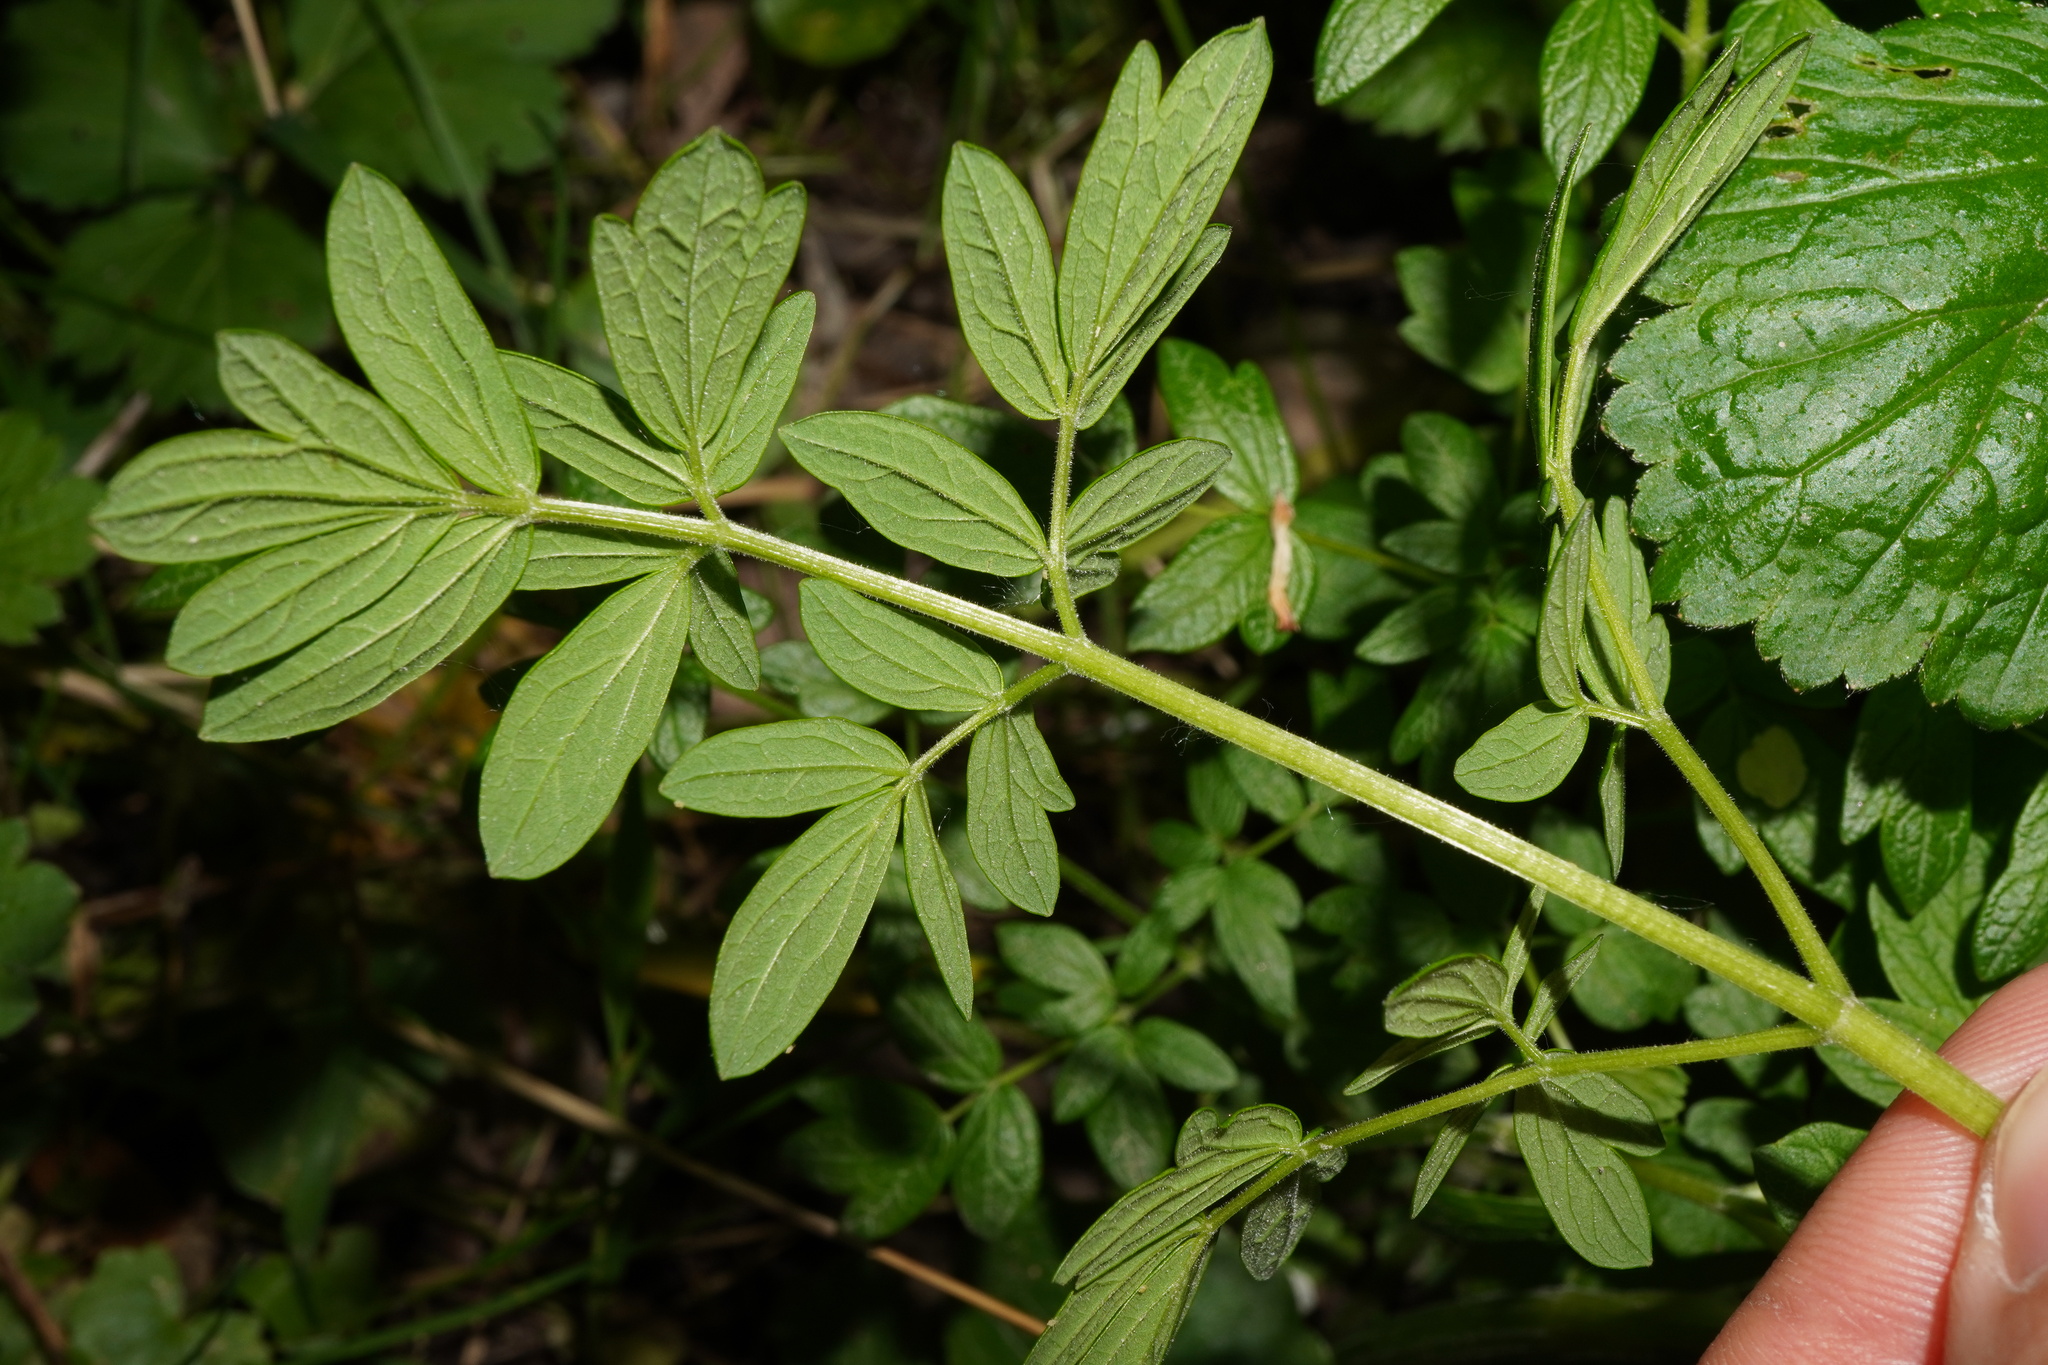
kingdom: Plantae
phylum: Tracheophyta
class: Magnoliopsida
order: Ranunculales
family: Ranunculaceae
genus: Thalictrum
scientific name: Thalictrum lucidum
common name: Shining meadow-rue
